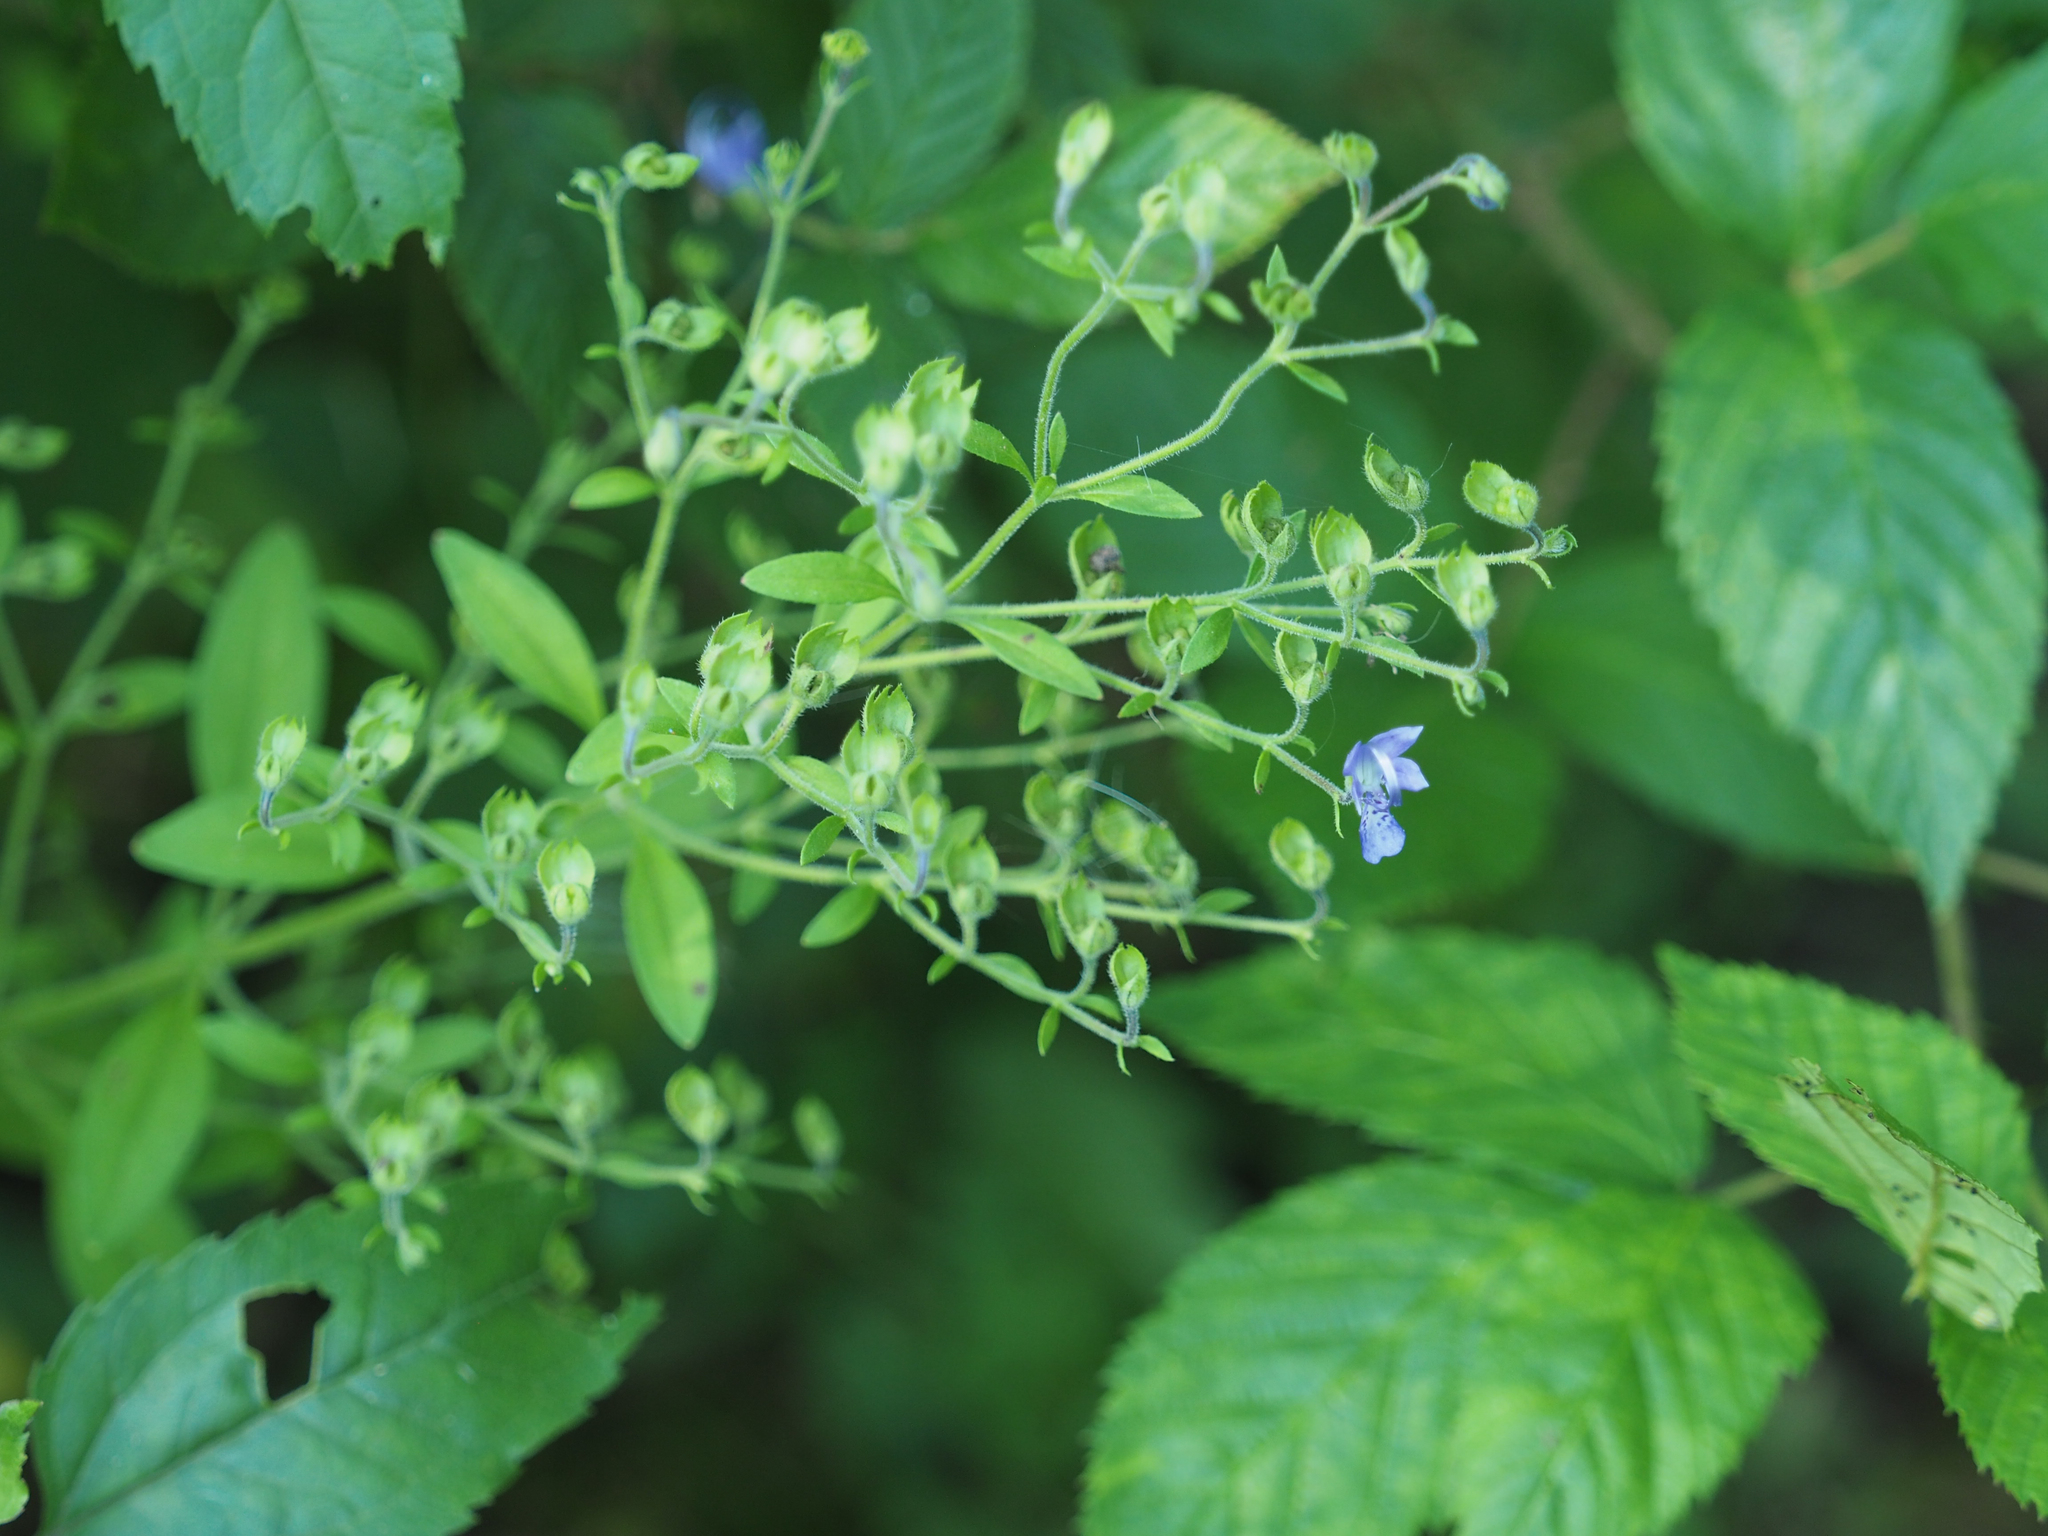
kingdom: Plantae
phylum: Tracheophyta
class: Magnoliopsida
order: Lamiales
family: Lamiaceae
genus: Trichostema
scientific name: Trichostema dichotomum
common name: Bastard pennyroyal
